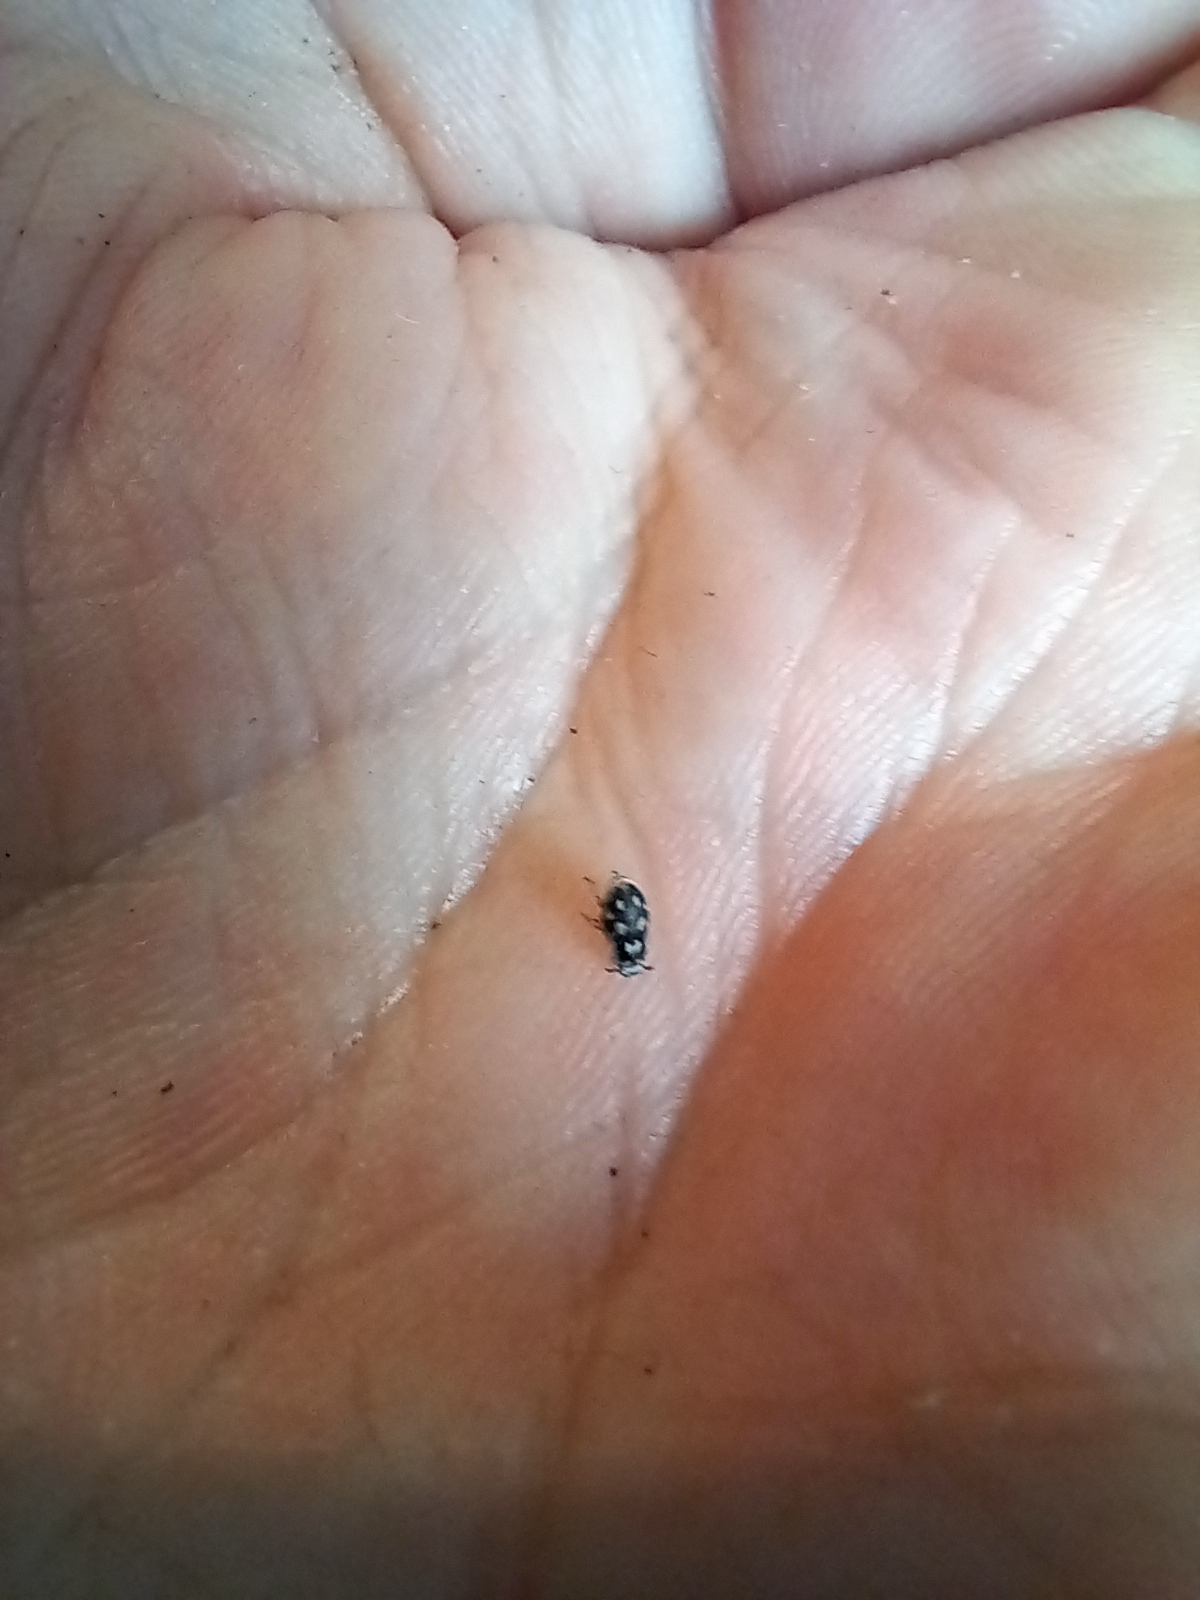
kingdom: Animalia
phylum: Arthropoda
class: Insecta
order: Coleoptera
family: Tenebrionidae
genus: Actizeta
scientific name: Actizeta
